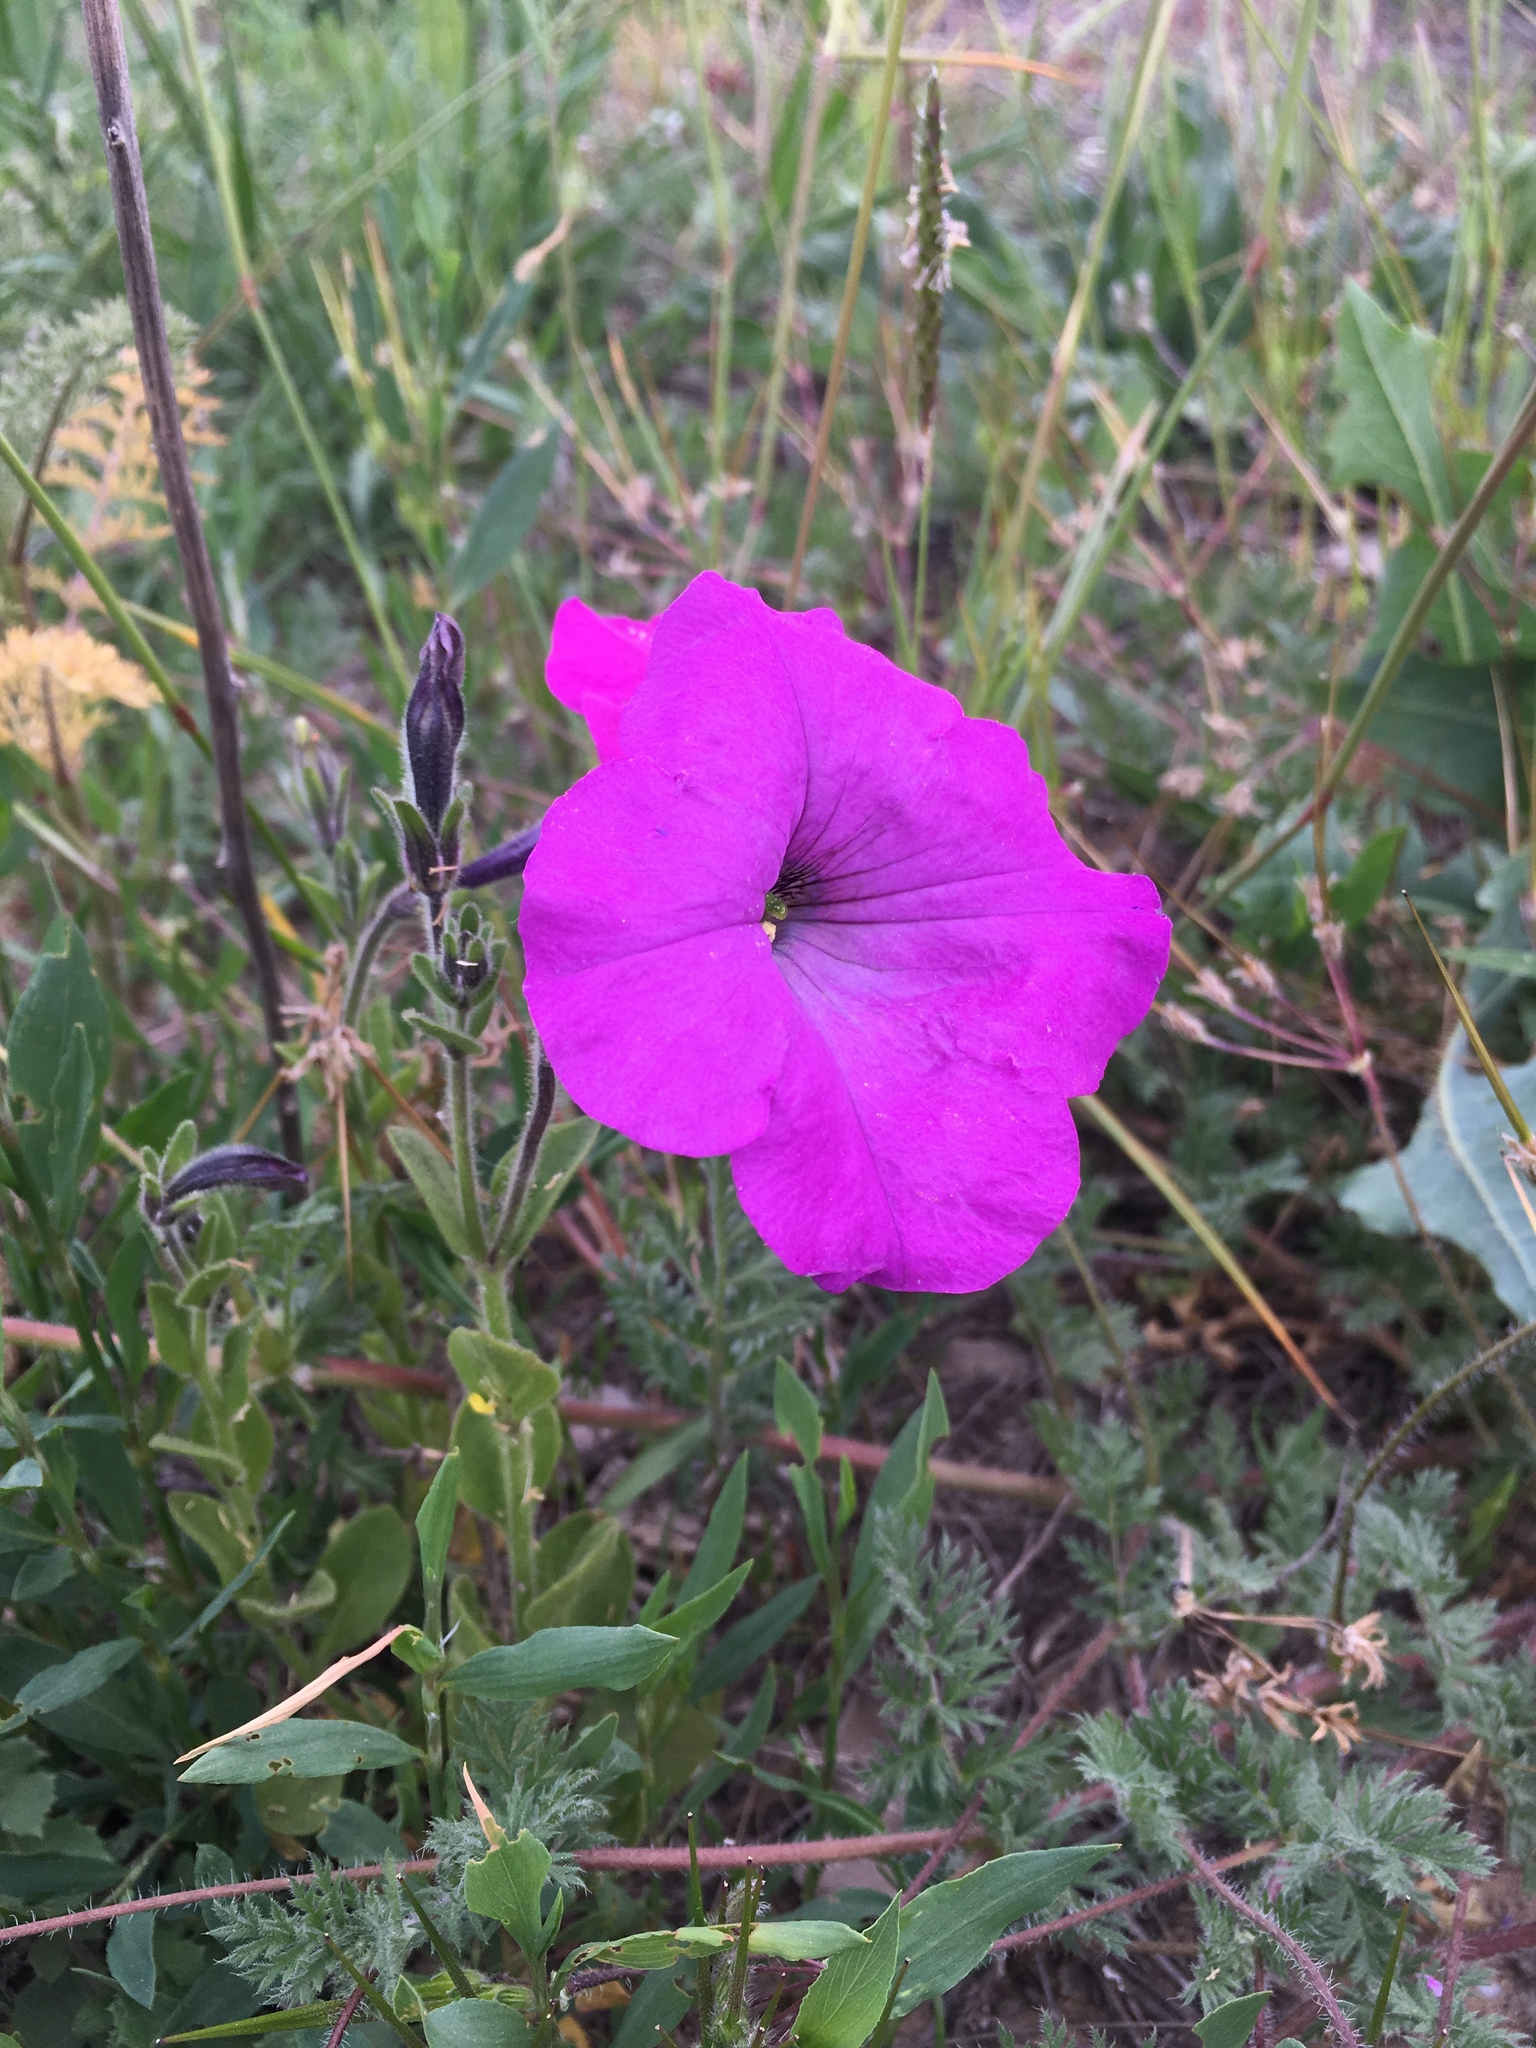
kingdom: Plantae
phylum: Tracheophyta
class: Magnoliopsida
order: Solanales
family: Solanaceae
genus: Petunia
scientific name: Petunia atkinsiana
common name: Petunia
